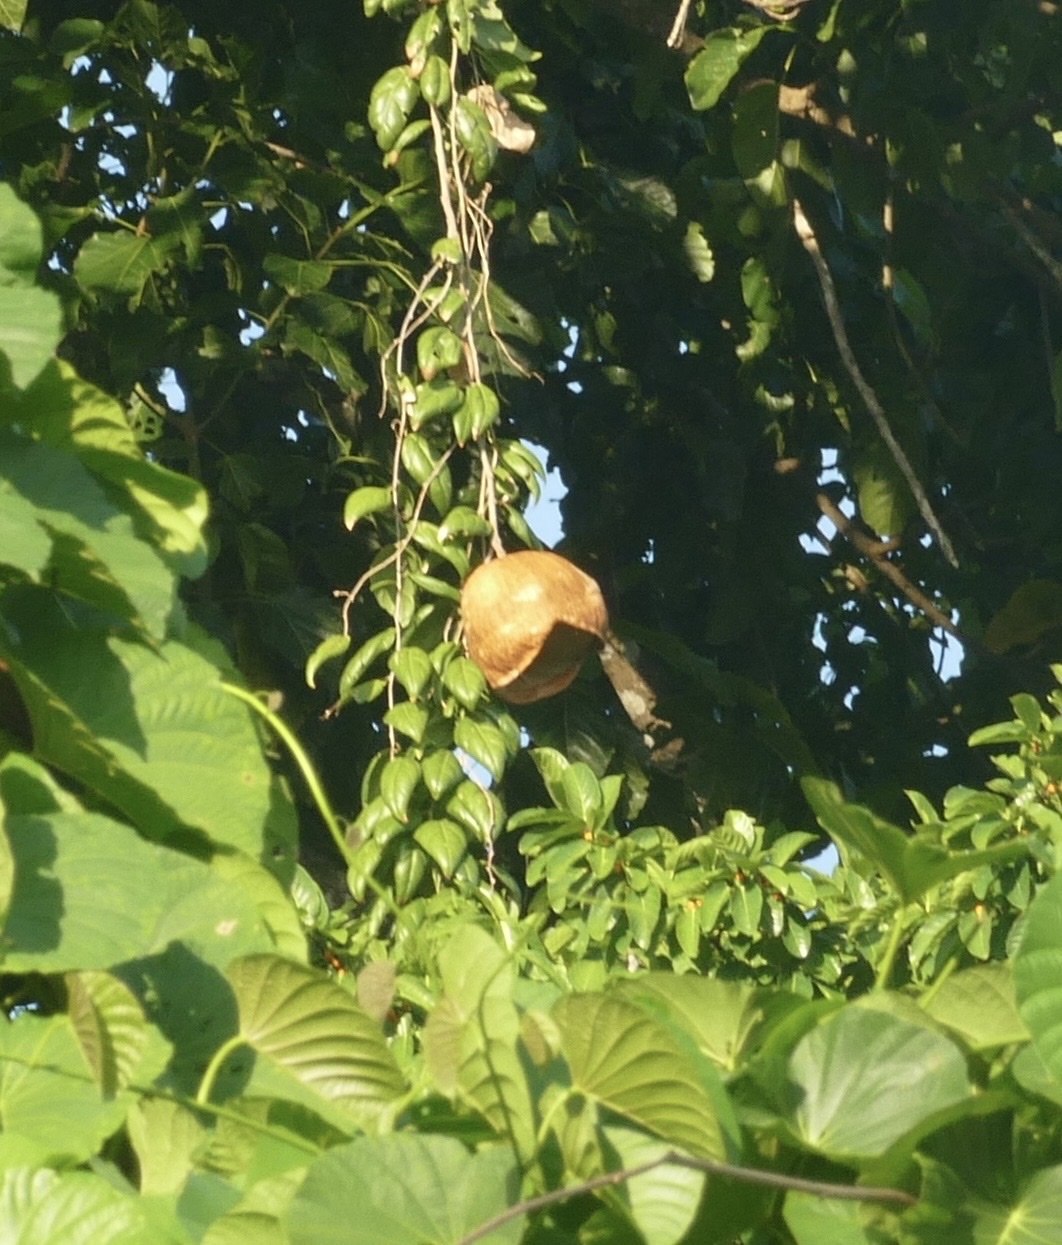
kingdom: Plantae
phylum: Tracheophyta
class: Magnoliopsida
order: Cucurbitales
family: Cucurbitaceae
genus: Alsomitra
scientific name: Alsomitra macrocarpa
